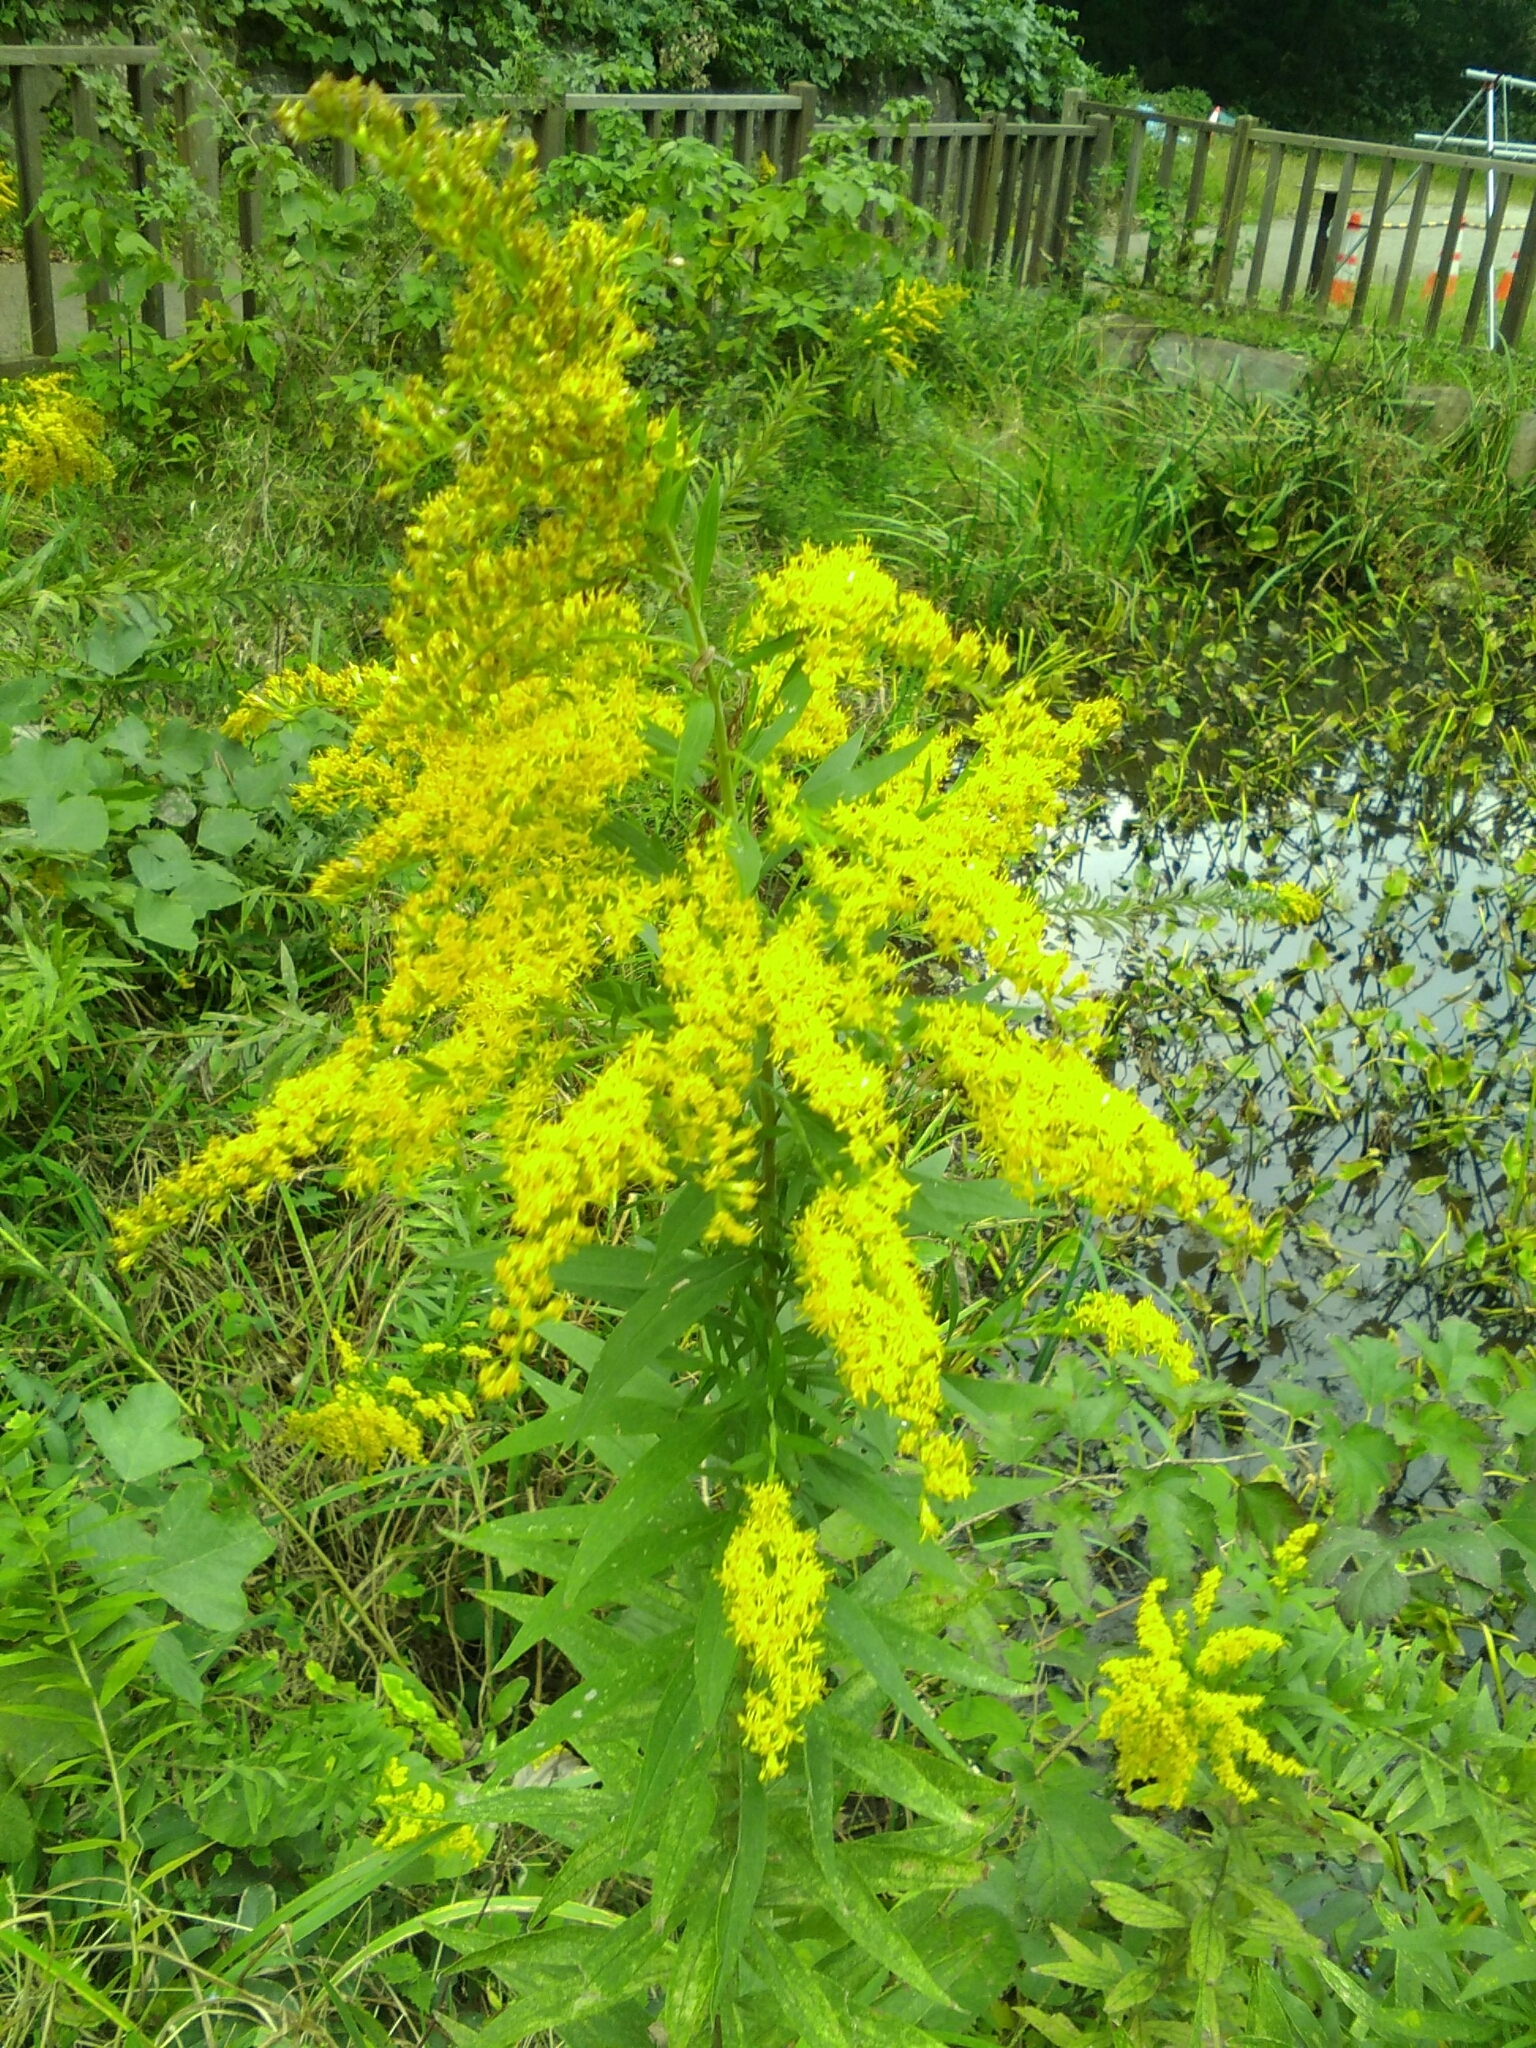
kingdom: Plantae
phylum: Tracheophyta
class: Magnoliopsida
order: Asterales
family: Asteraceae
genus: Solidago
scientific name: Solidago altissima
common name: Late goldenrod
